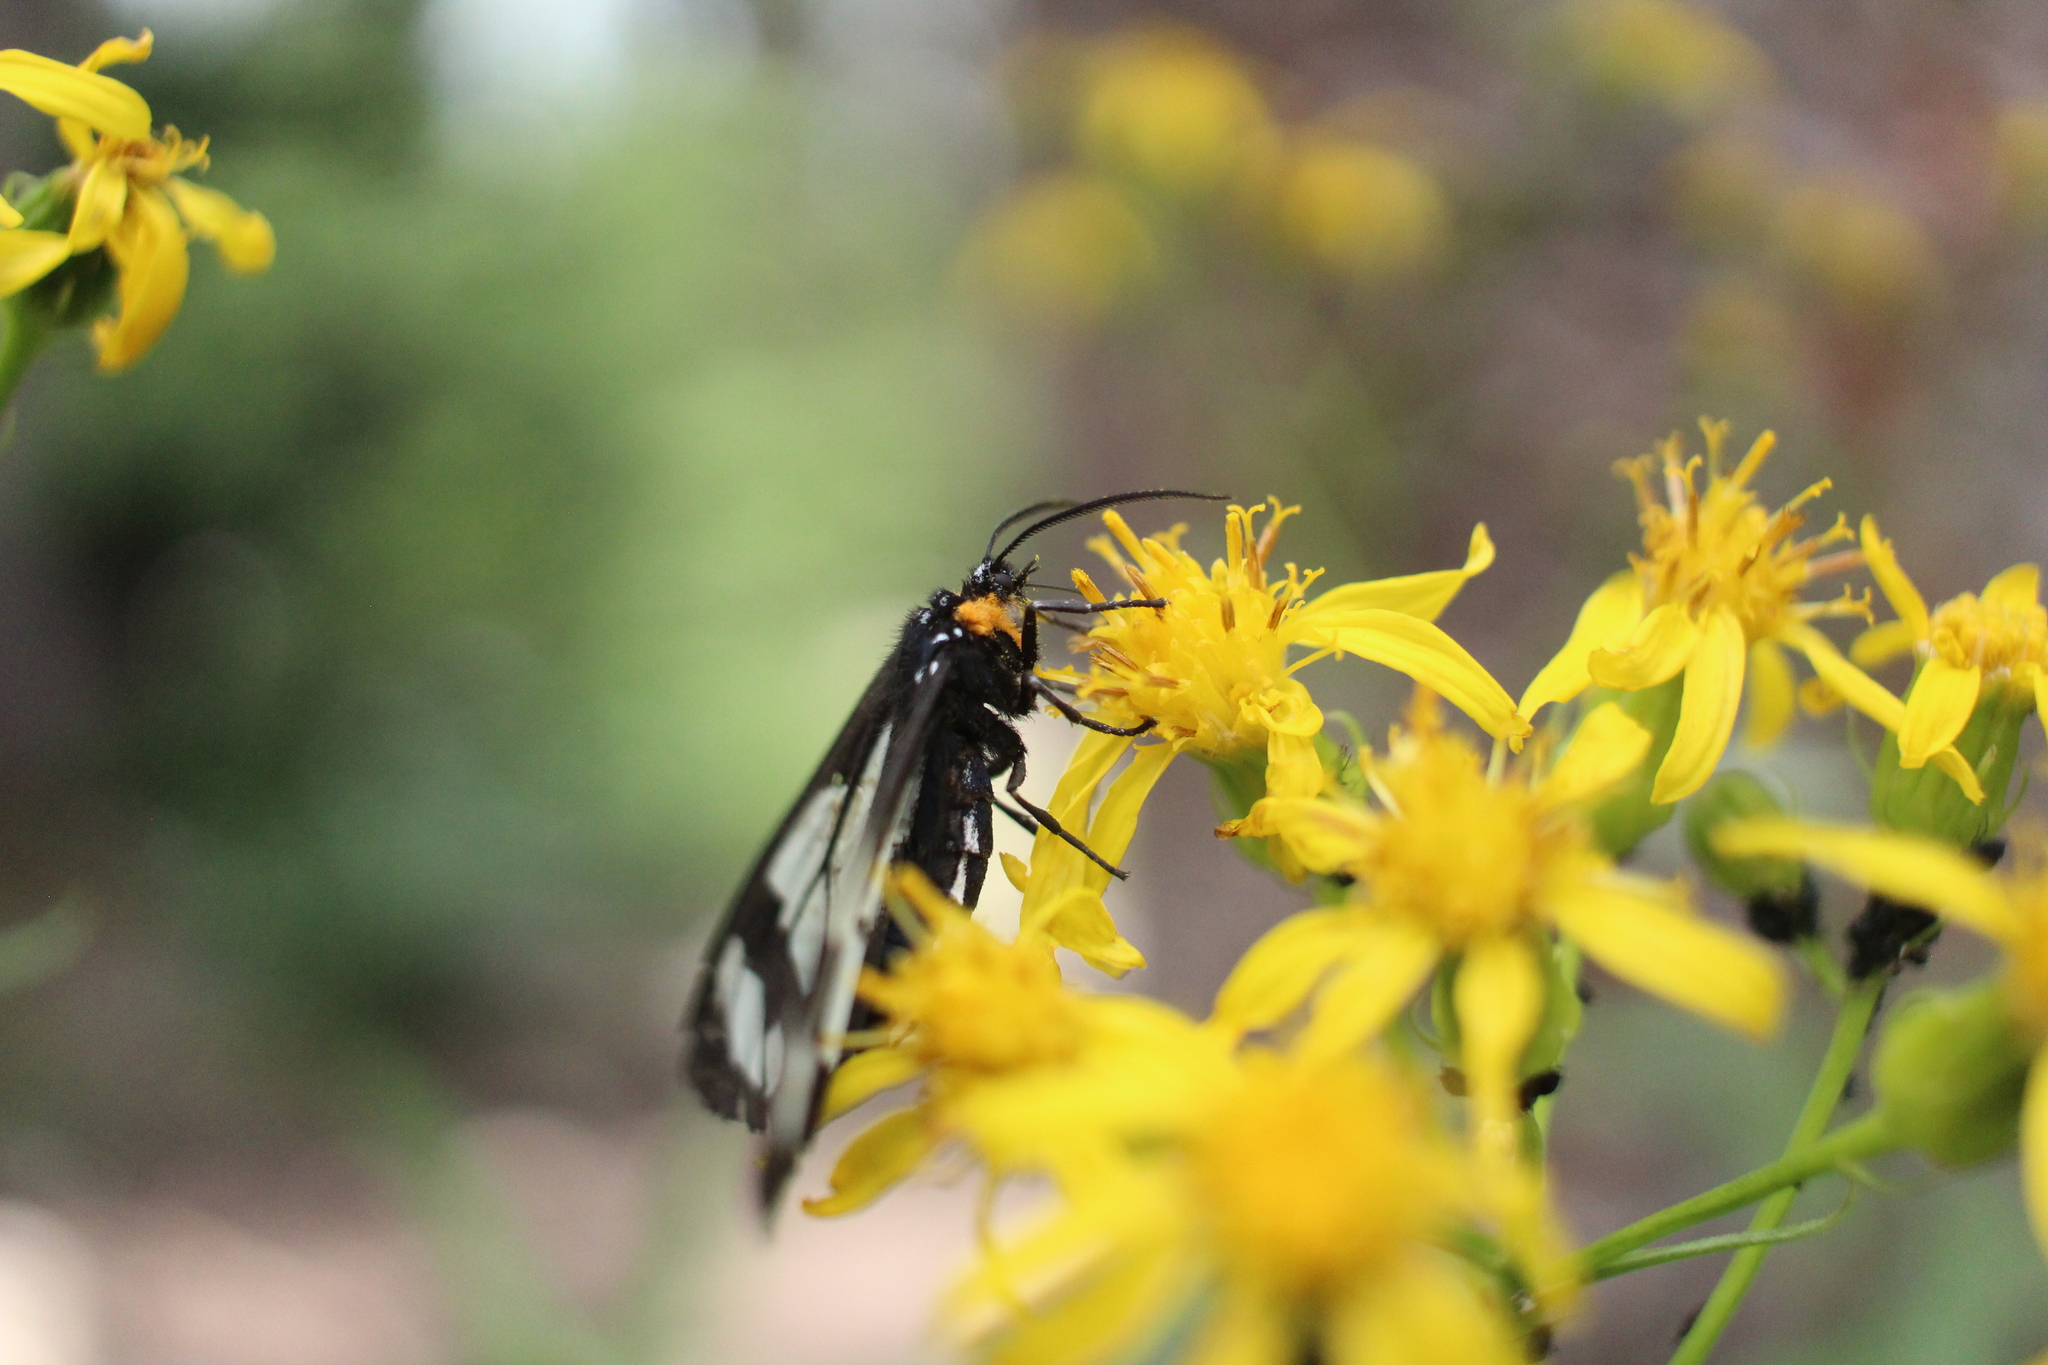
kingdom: Animalia
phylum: Arthropoda
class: Insecta
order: Lepidoptera
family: Erebidae
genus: Gnophaela
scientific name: Gnophaela vermiculata
